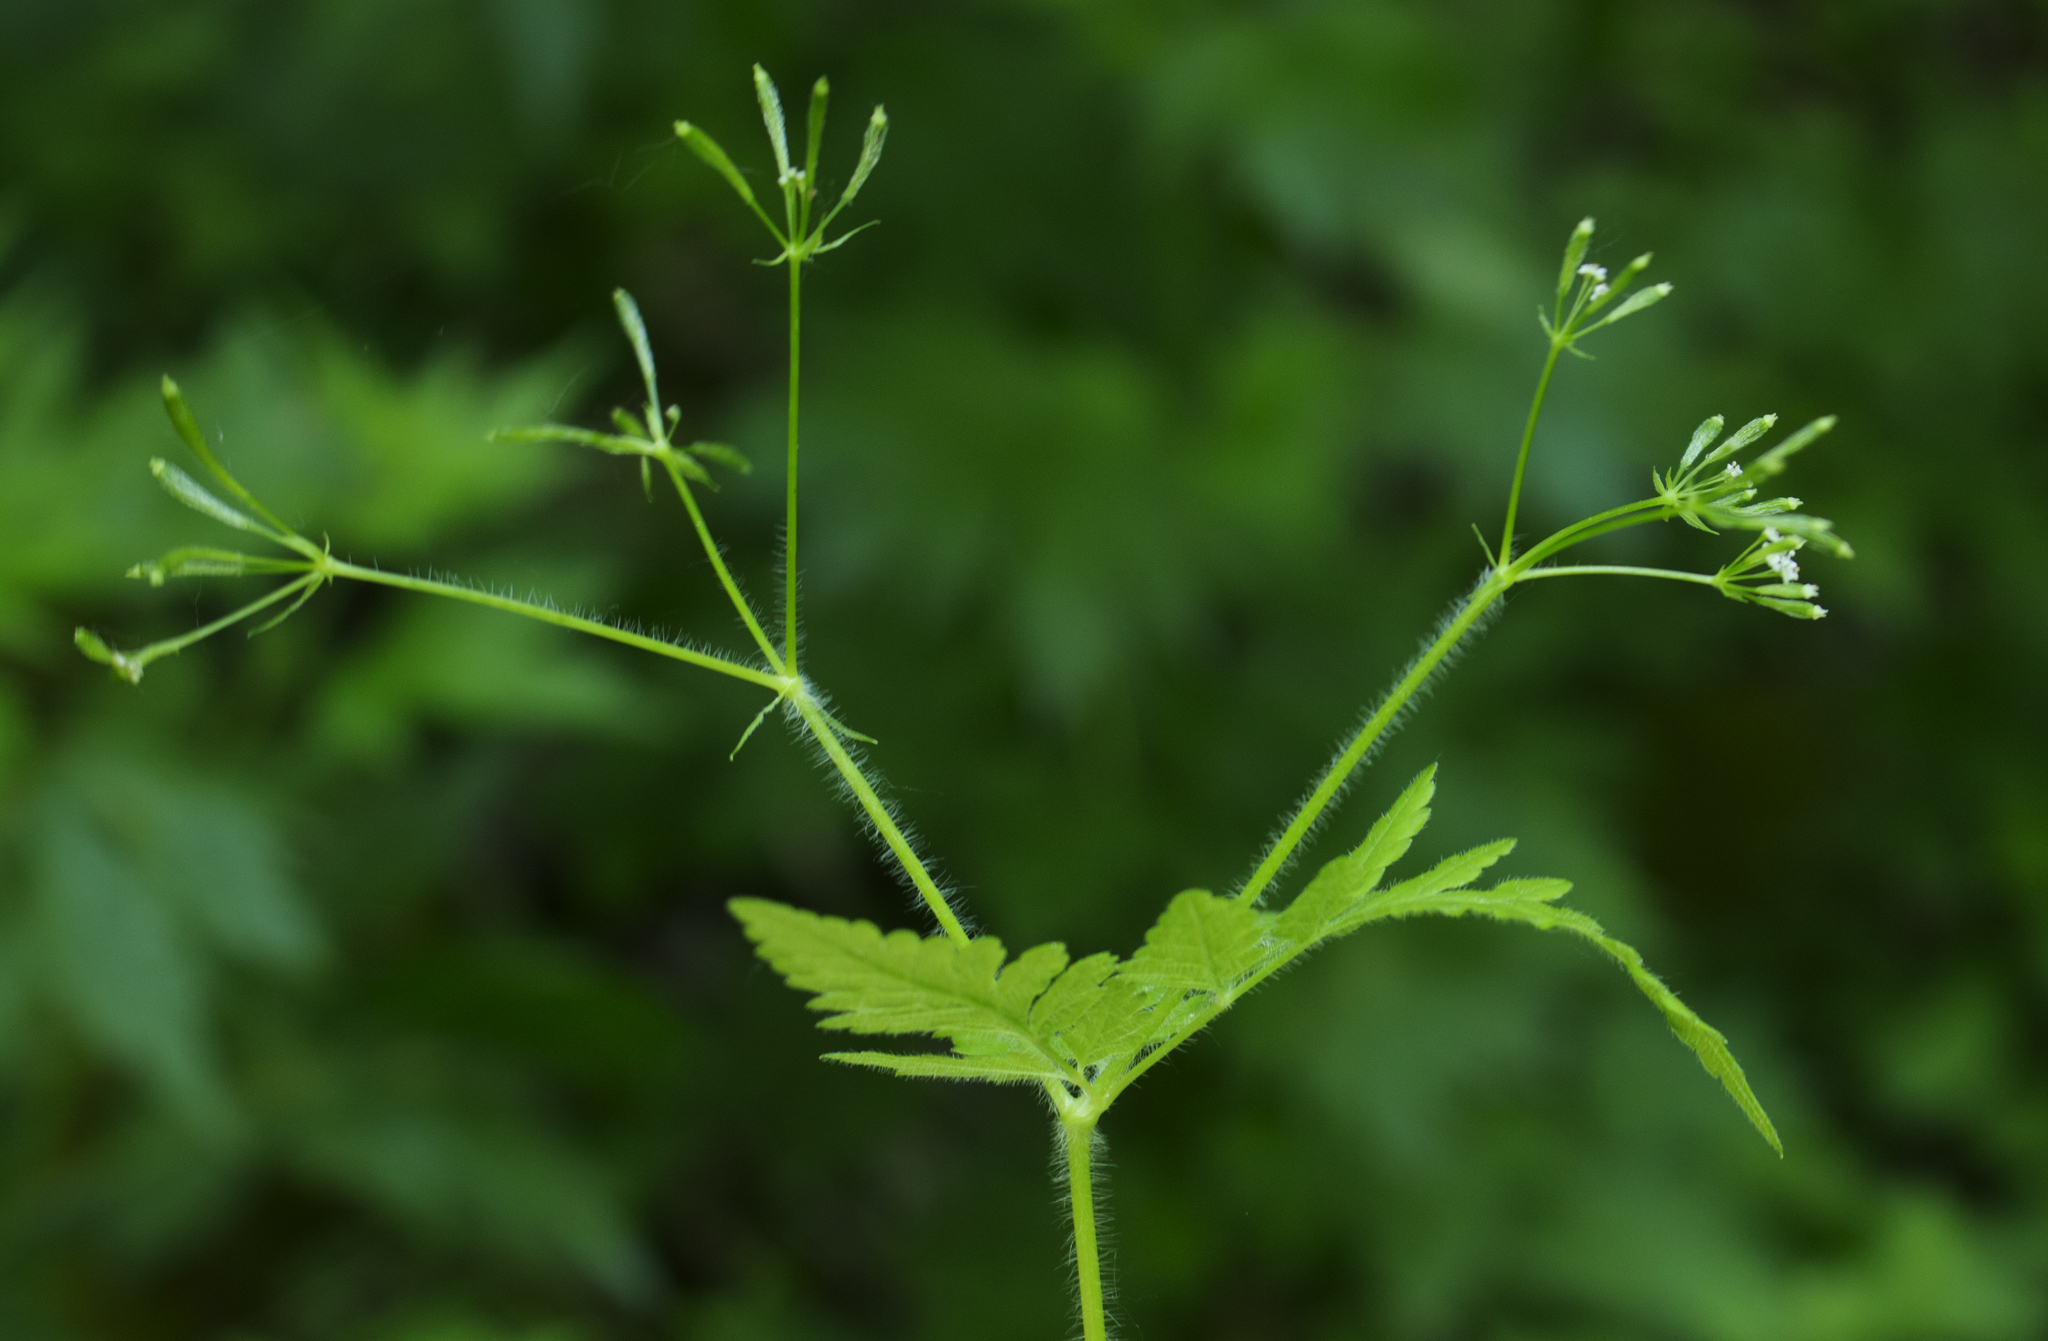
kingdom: Plantae
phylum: Tracheophyta
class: Magnoliopsida
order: Apiales
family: Apiaceae
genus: Osmorhiza
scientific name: Osmorhiza claytonii
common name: Hairy sweet cicely
